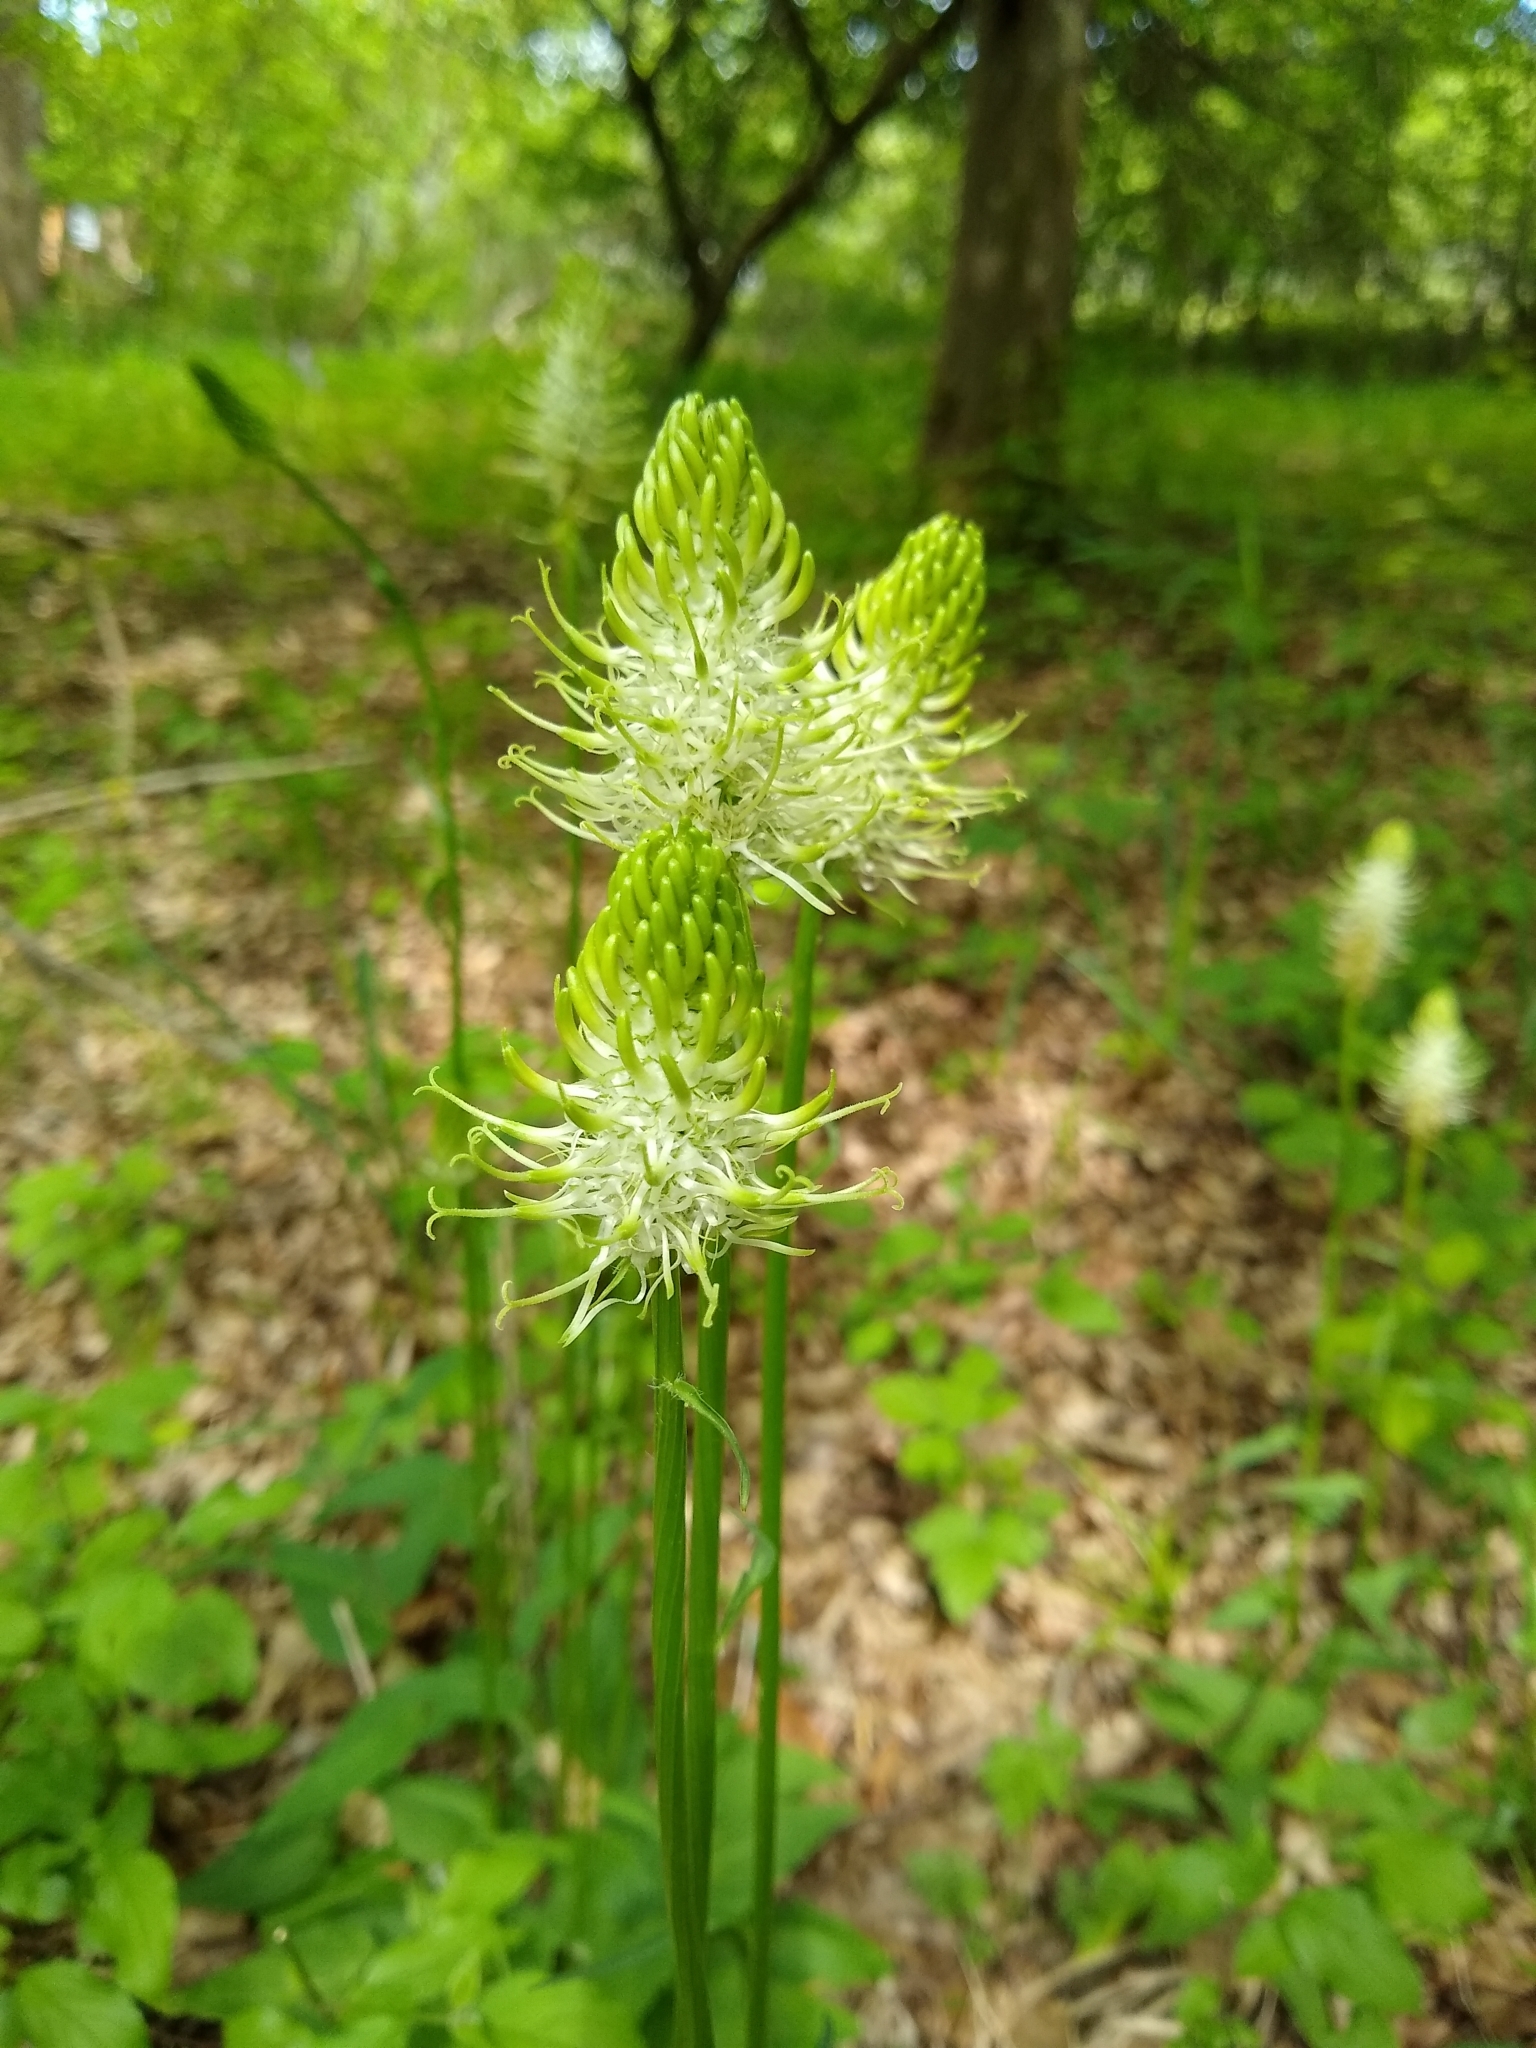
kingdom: Plantae
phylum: Tracheophyta
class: Magnoliopsida
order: Asterales
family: Campanulaceae
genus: Phyteuma
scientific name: Phyteuma spicatum
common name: Spiked rampion
